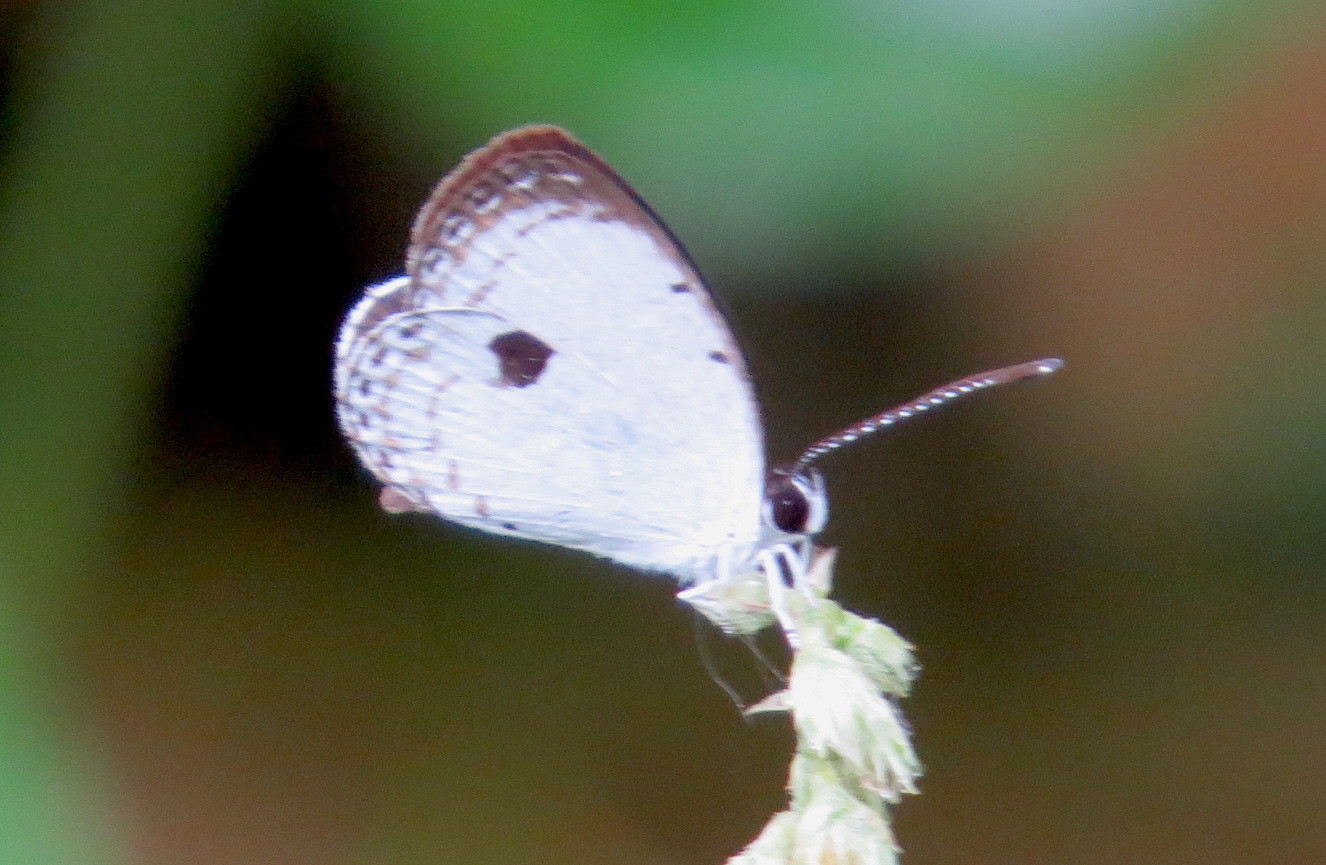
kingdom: Animalia
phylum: Arthropoda
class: Insecta
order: Lepidoptera
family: Lycaenidae
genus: Pithecops
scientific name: Pithecops corvus
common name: Forest quaker
